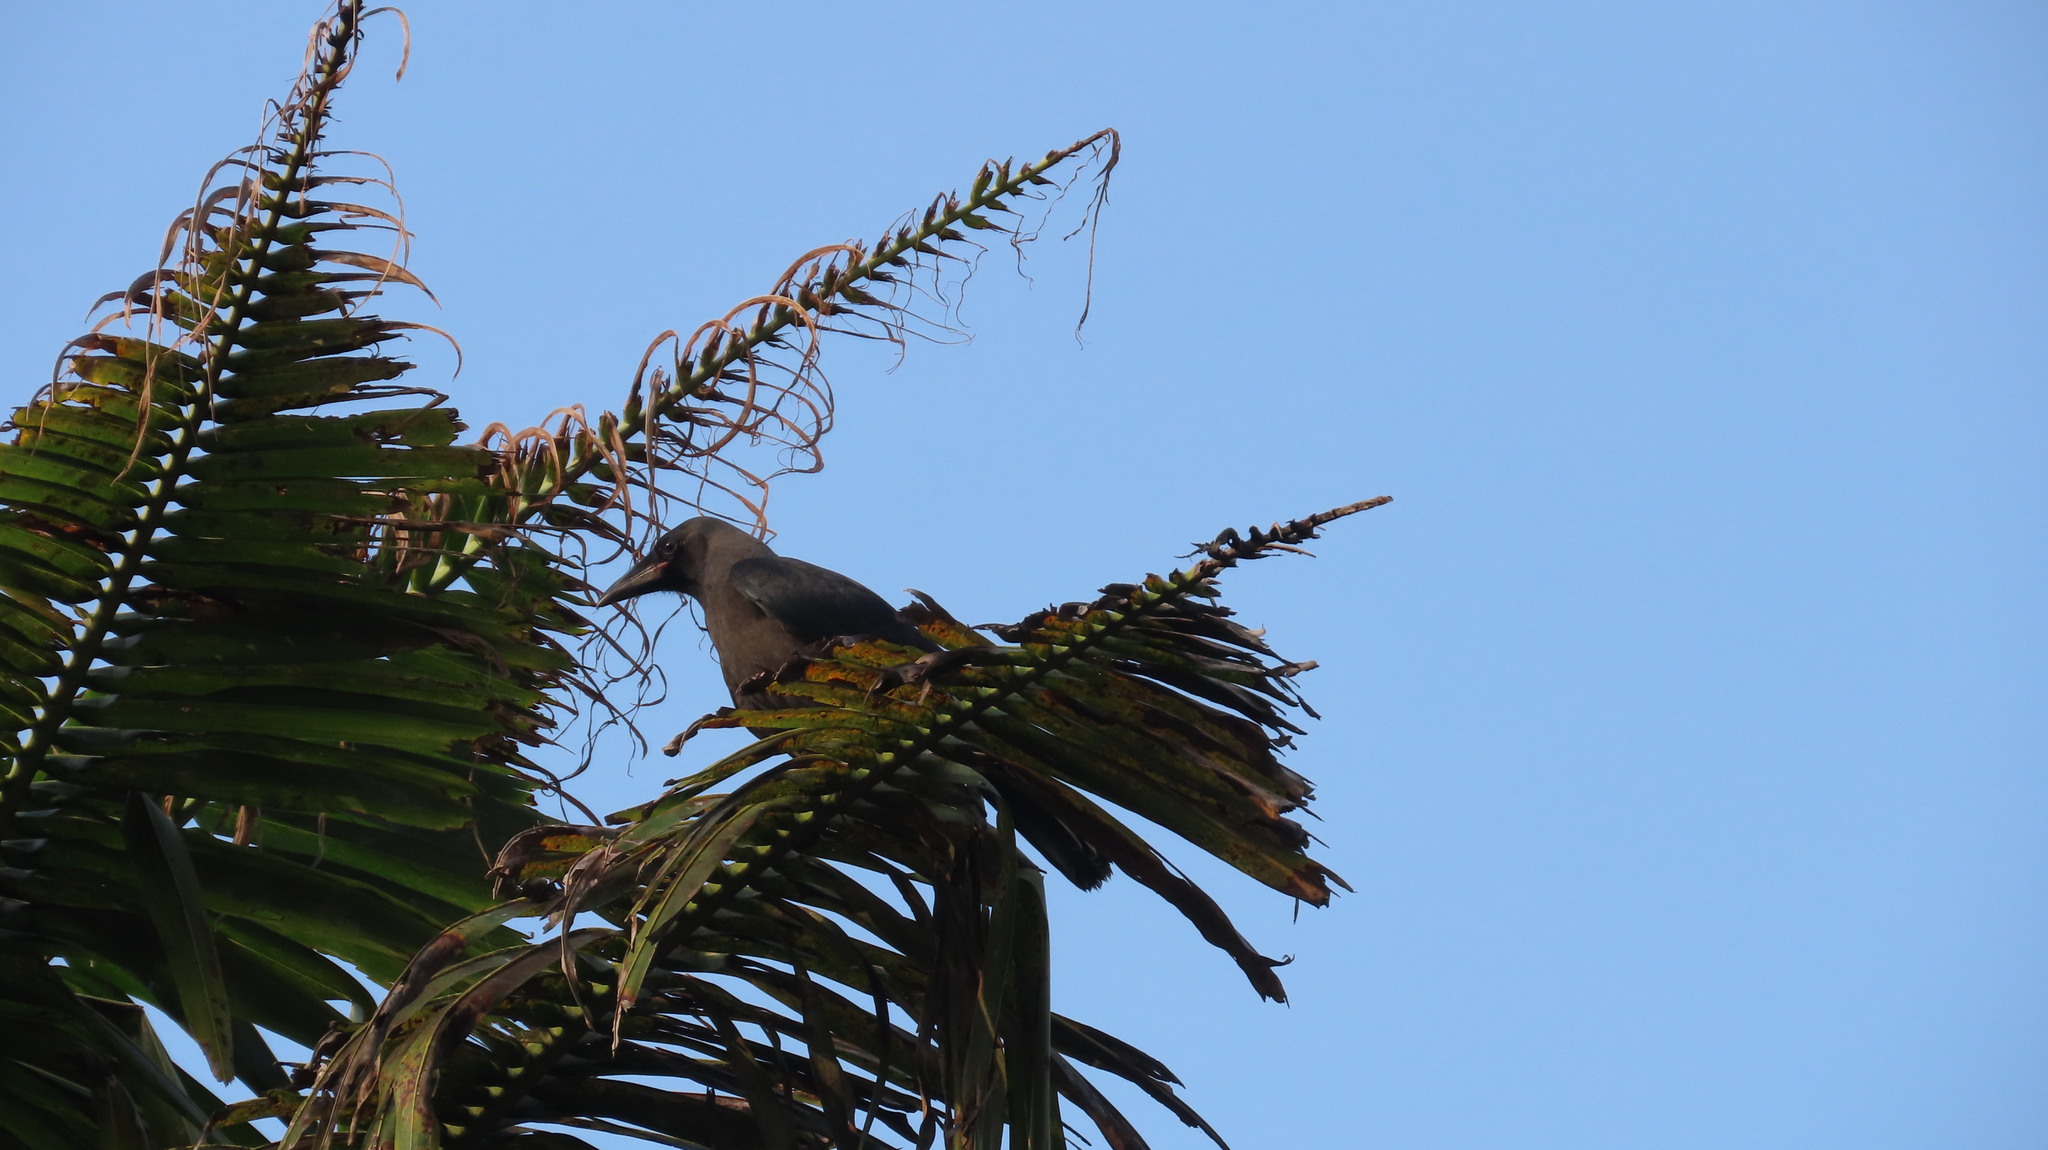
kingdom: Animalia
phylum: Chordata
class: Aves
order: Passeriformes
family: Corvidae
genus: Corvus
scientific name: Corvus splendens
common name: House crow
